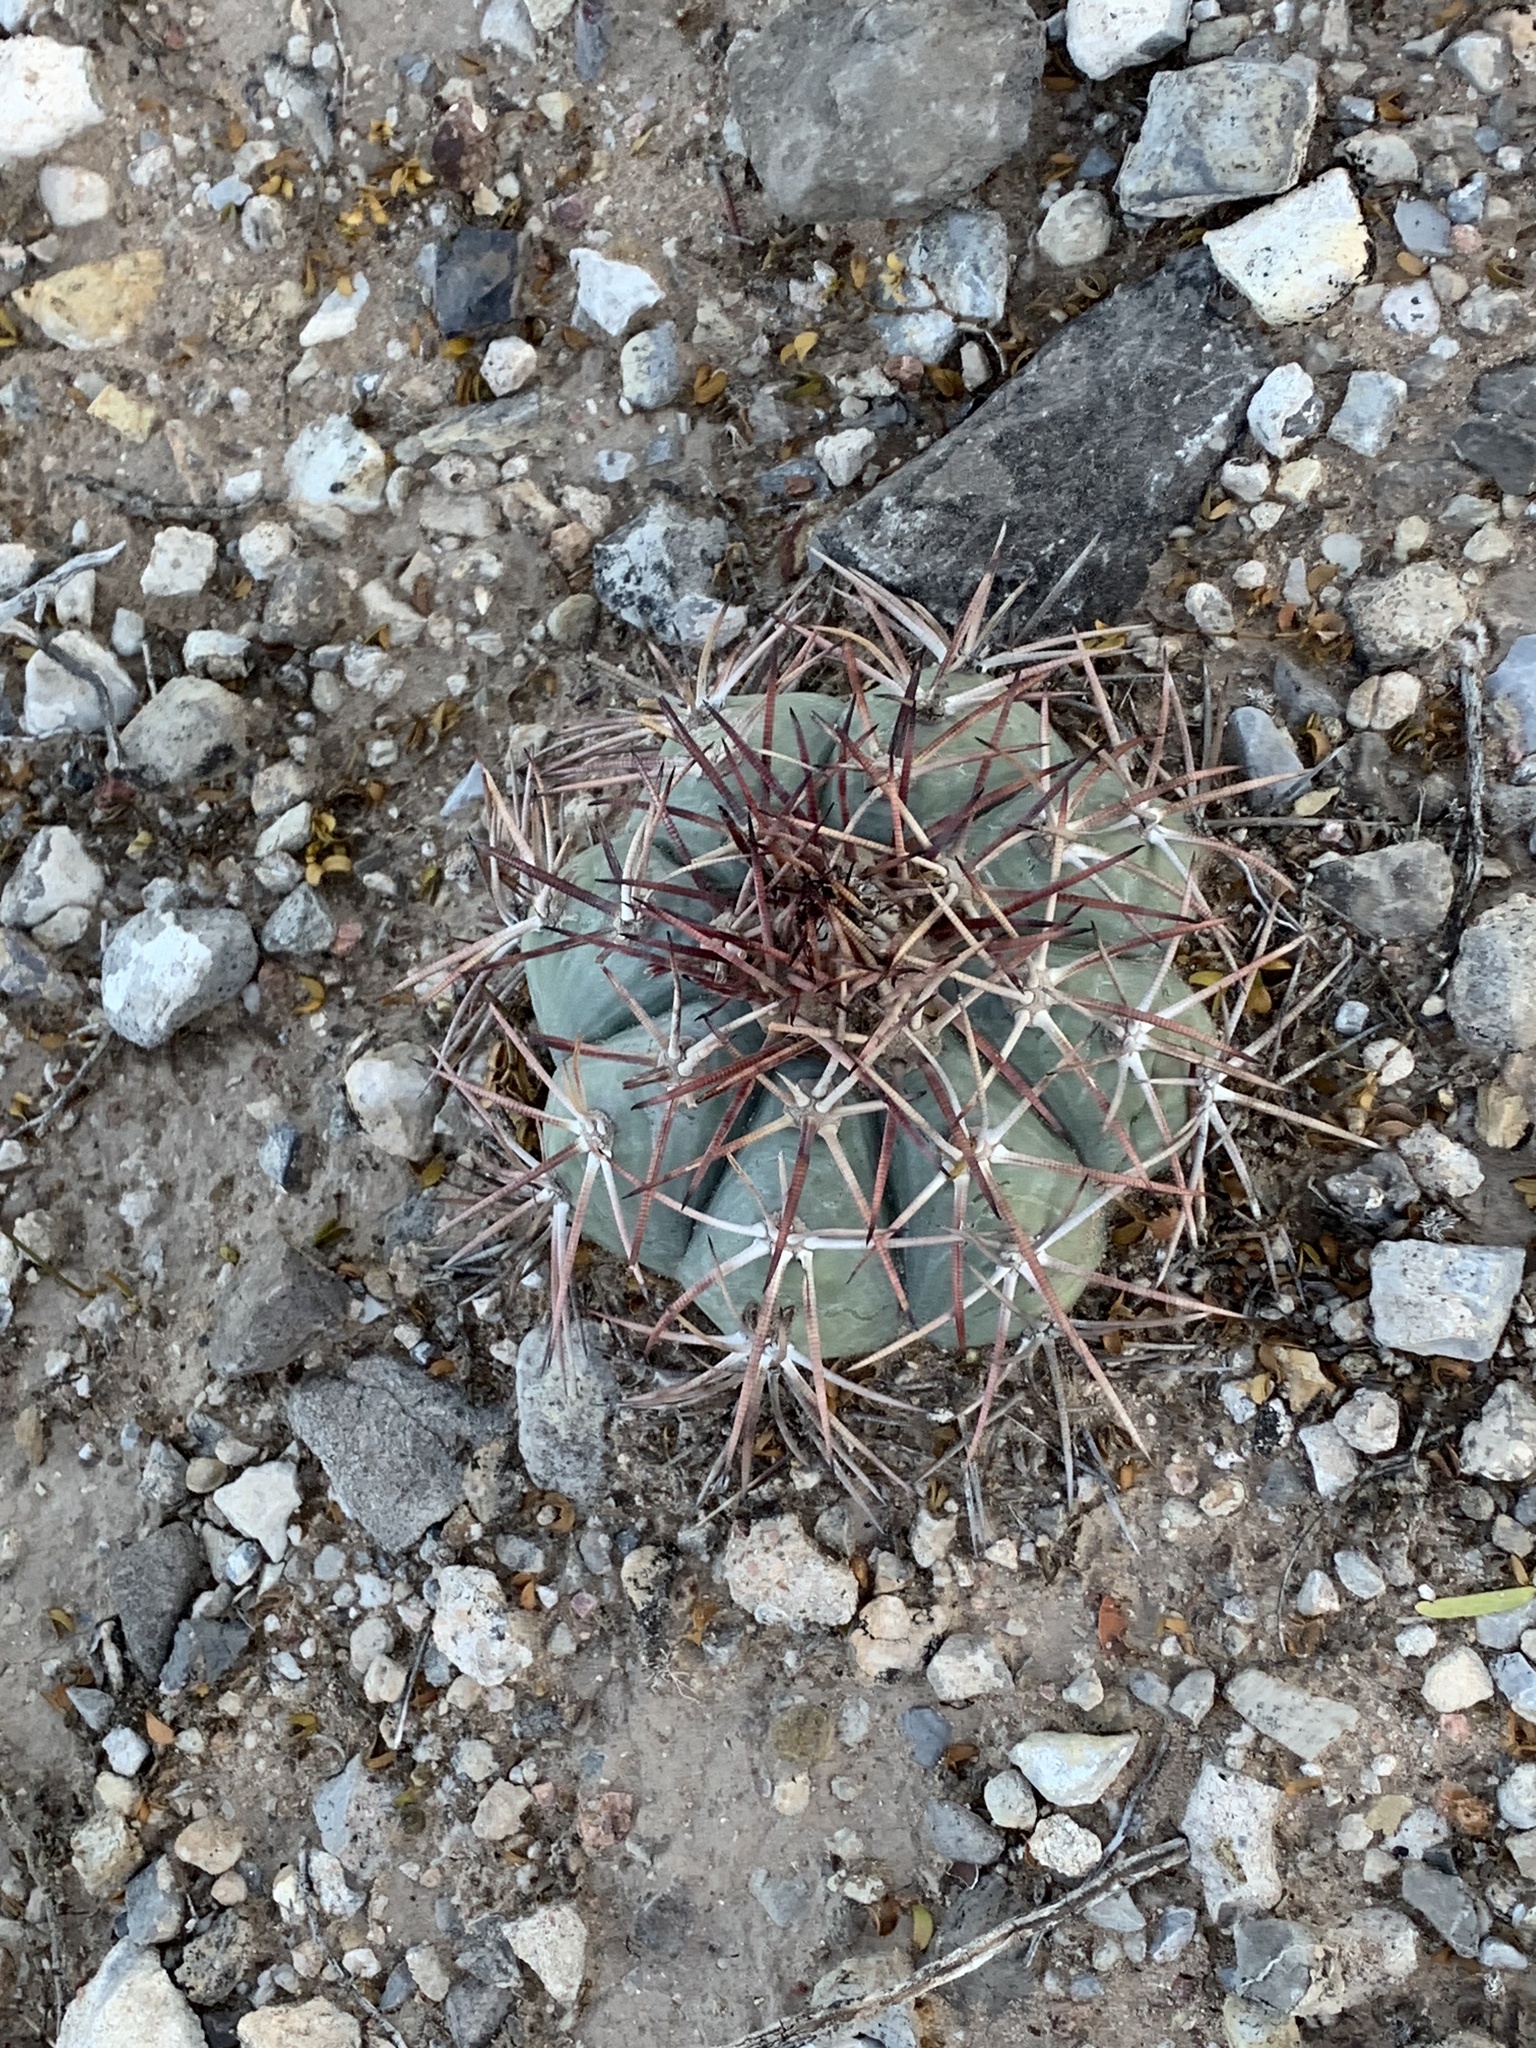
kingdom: Plantae
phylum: Tracheophyta
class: Magnoliopsida
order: Caryophyllales
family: Cactaceae
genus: Echinocactus
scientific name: Echinocactus horizonthalonius
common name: Devilshead
